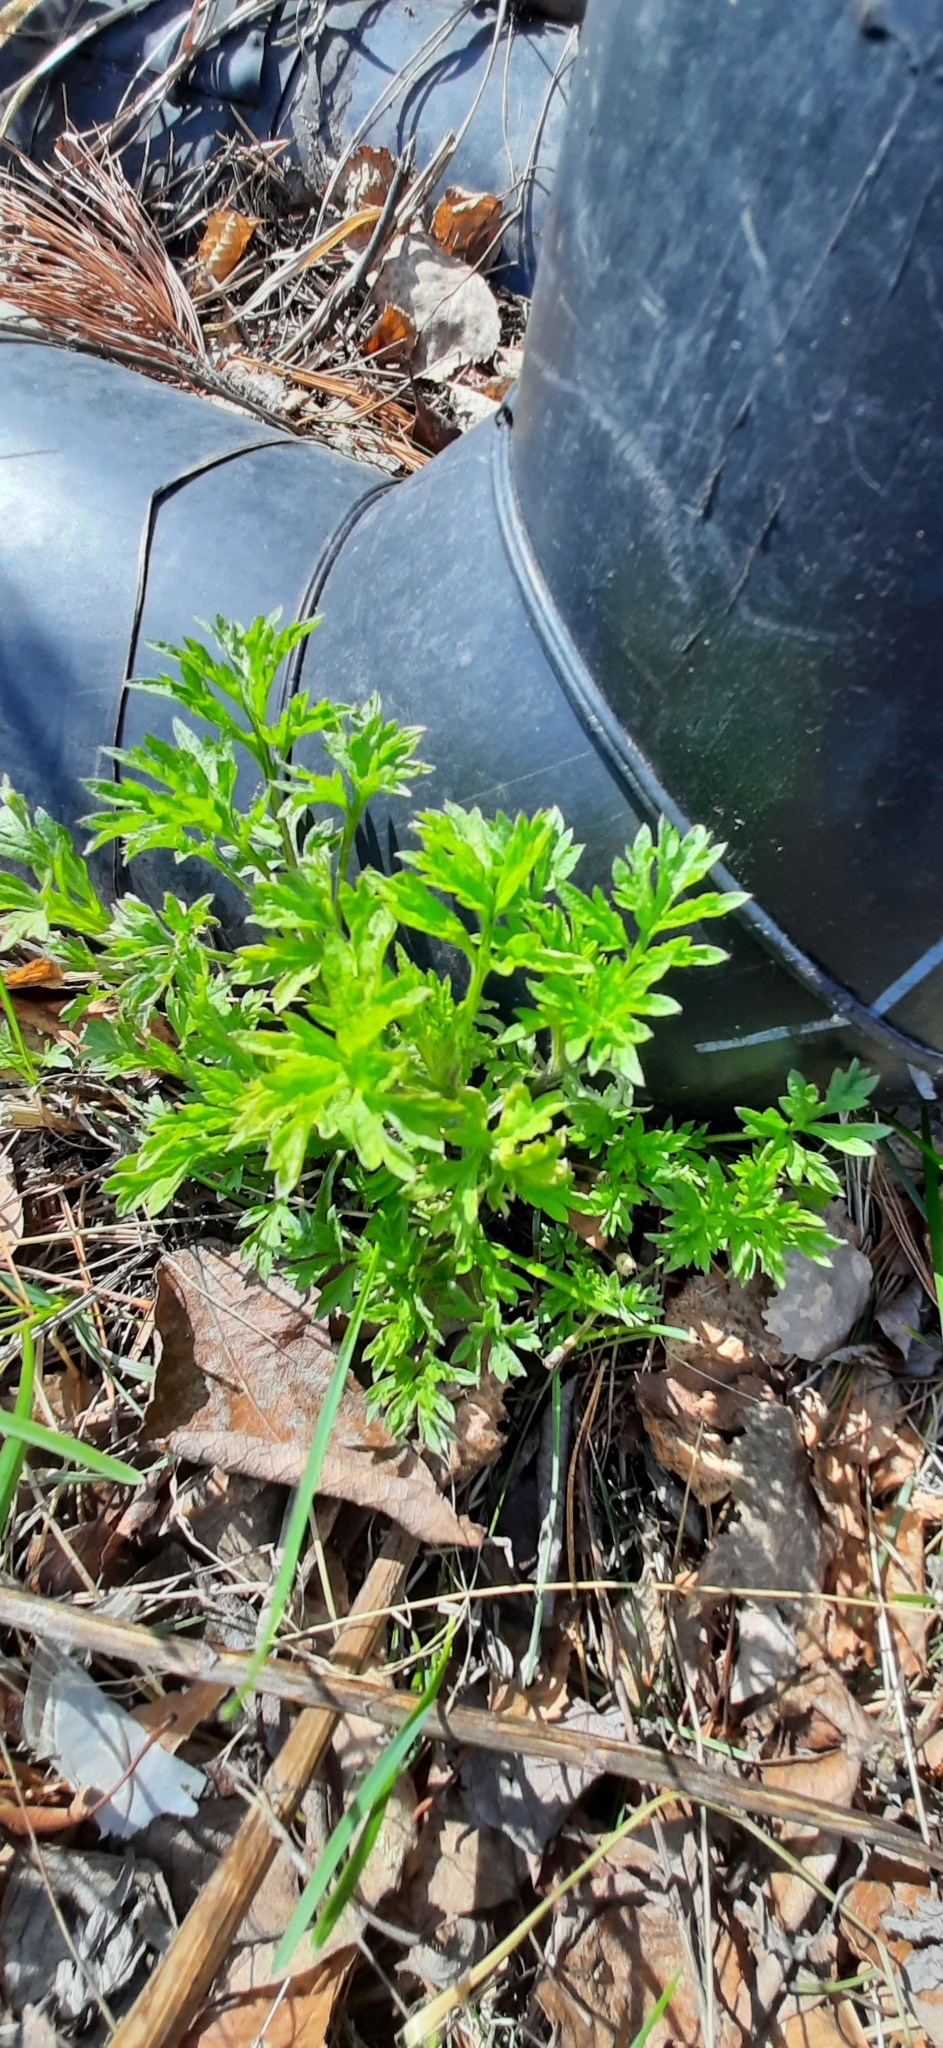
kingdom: Plantae
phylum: Tracheophyta
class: Magnoliopsida
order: Asterales
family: Asteraceae
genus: Artemisia
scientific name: Artemisia vulgaris
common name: Mugwort
